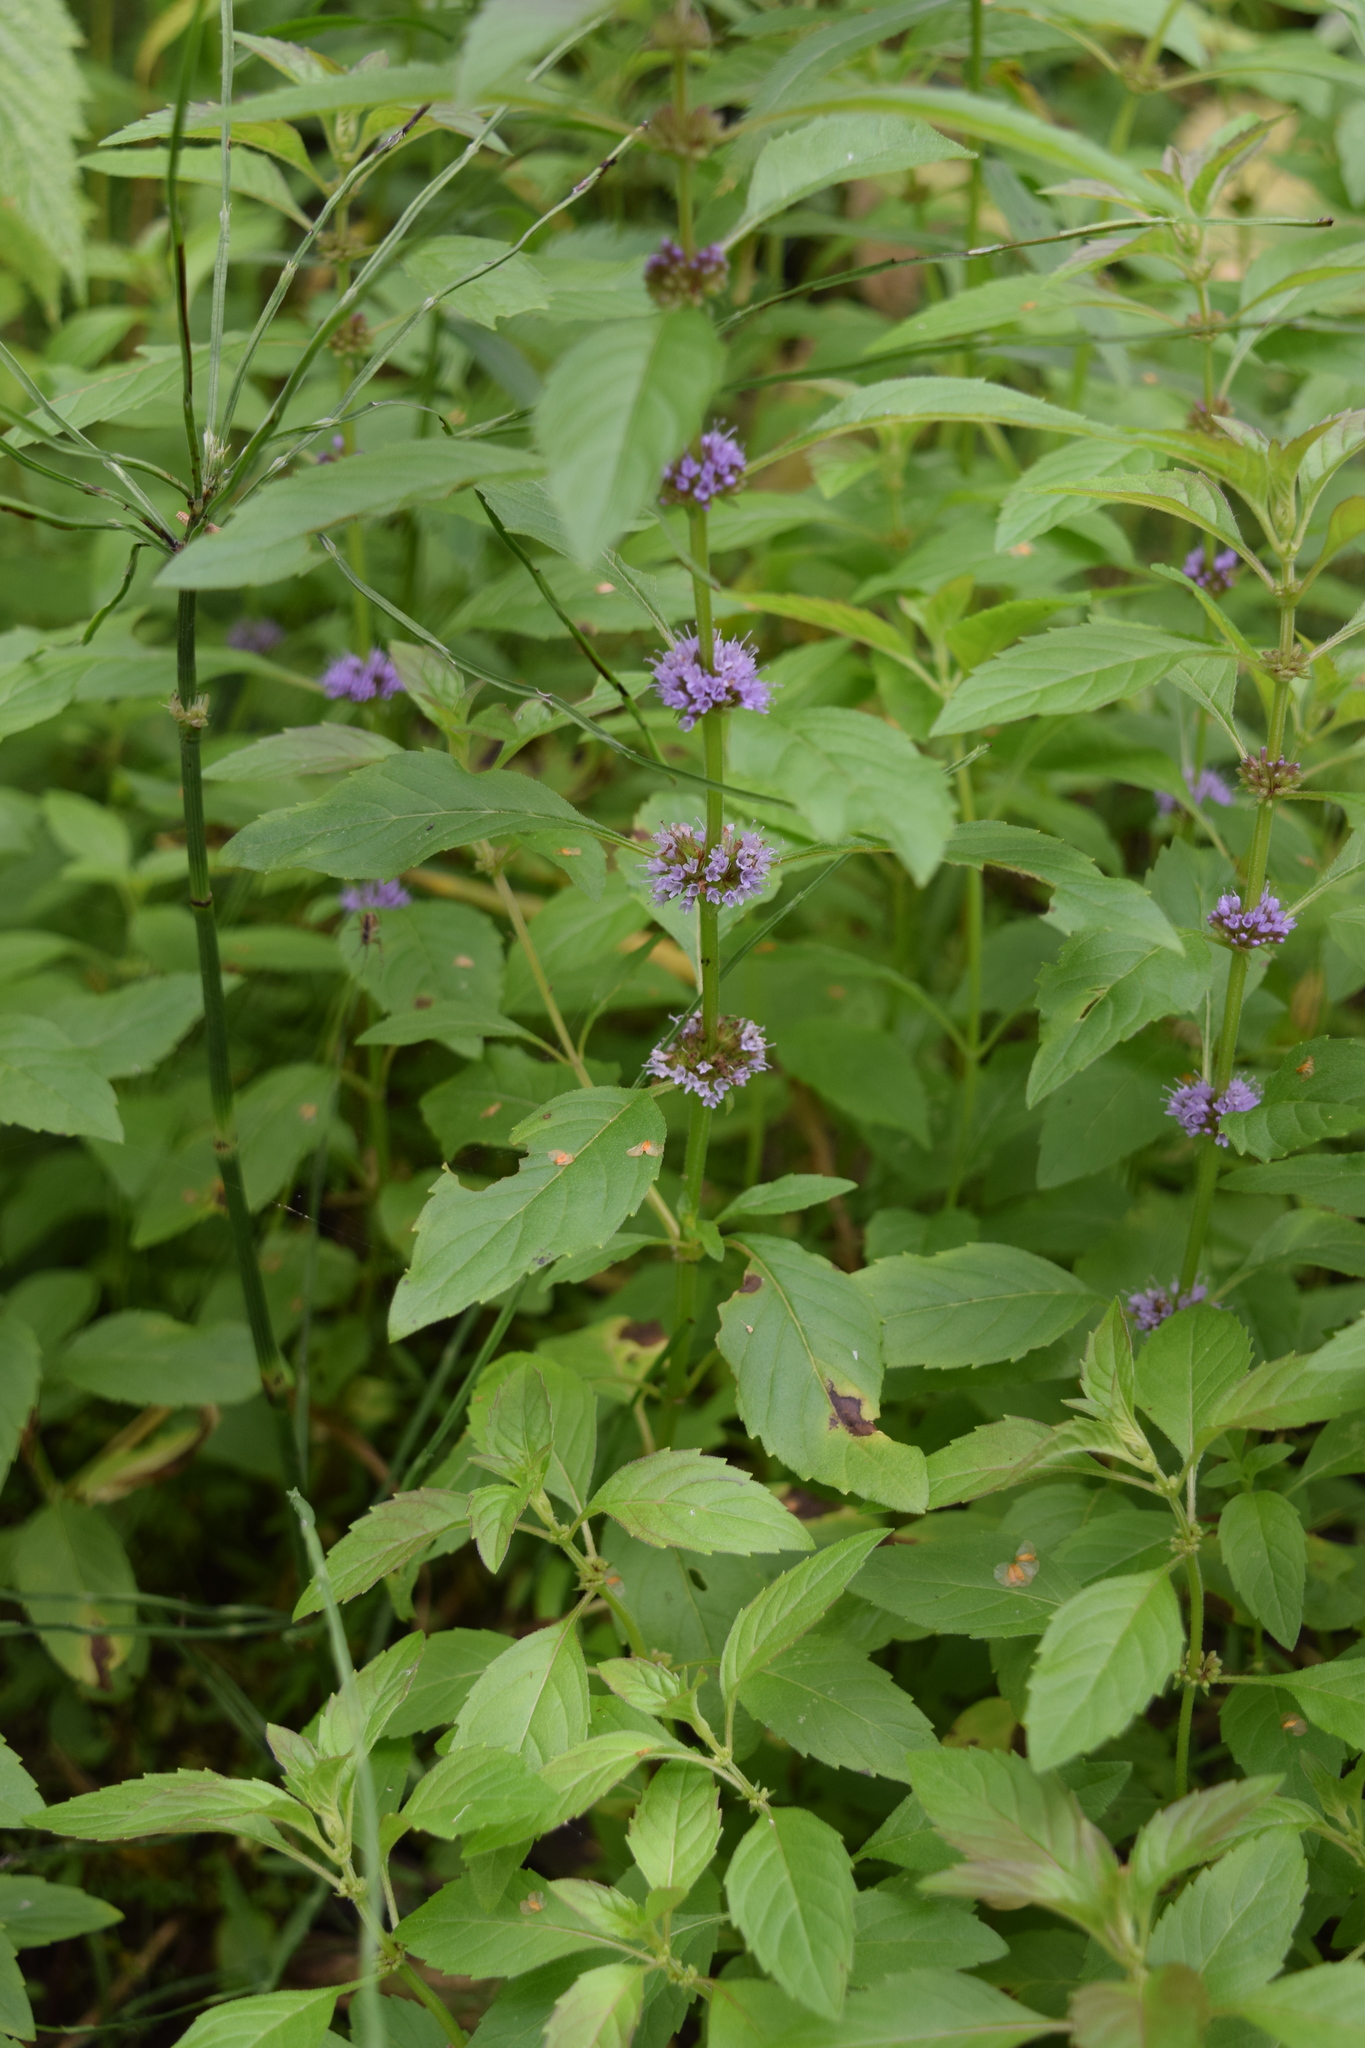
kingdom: Plantae
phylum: Tracheophyta
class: Magnoliopsida
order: Lamiales
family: Lamiaceae
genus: Mentha
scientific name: Mentha arvensis
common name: Corn mint
